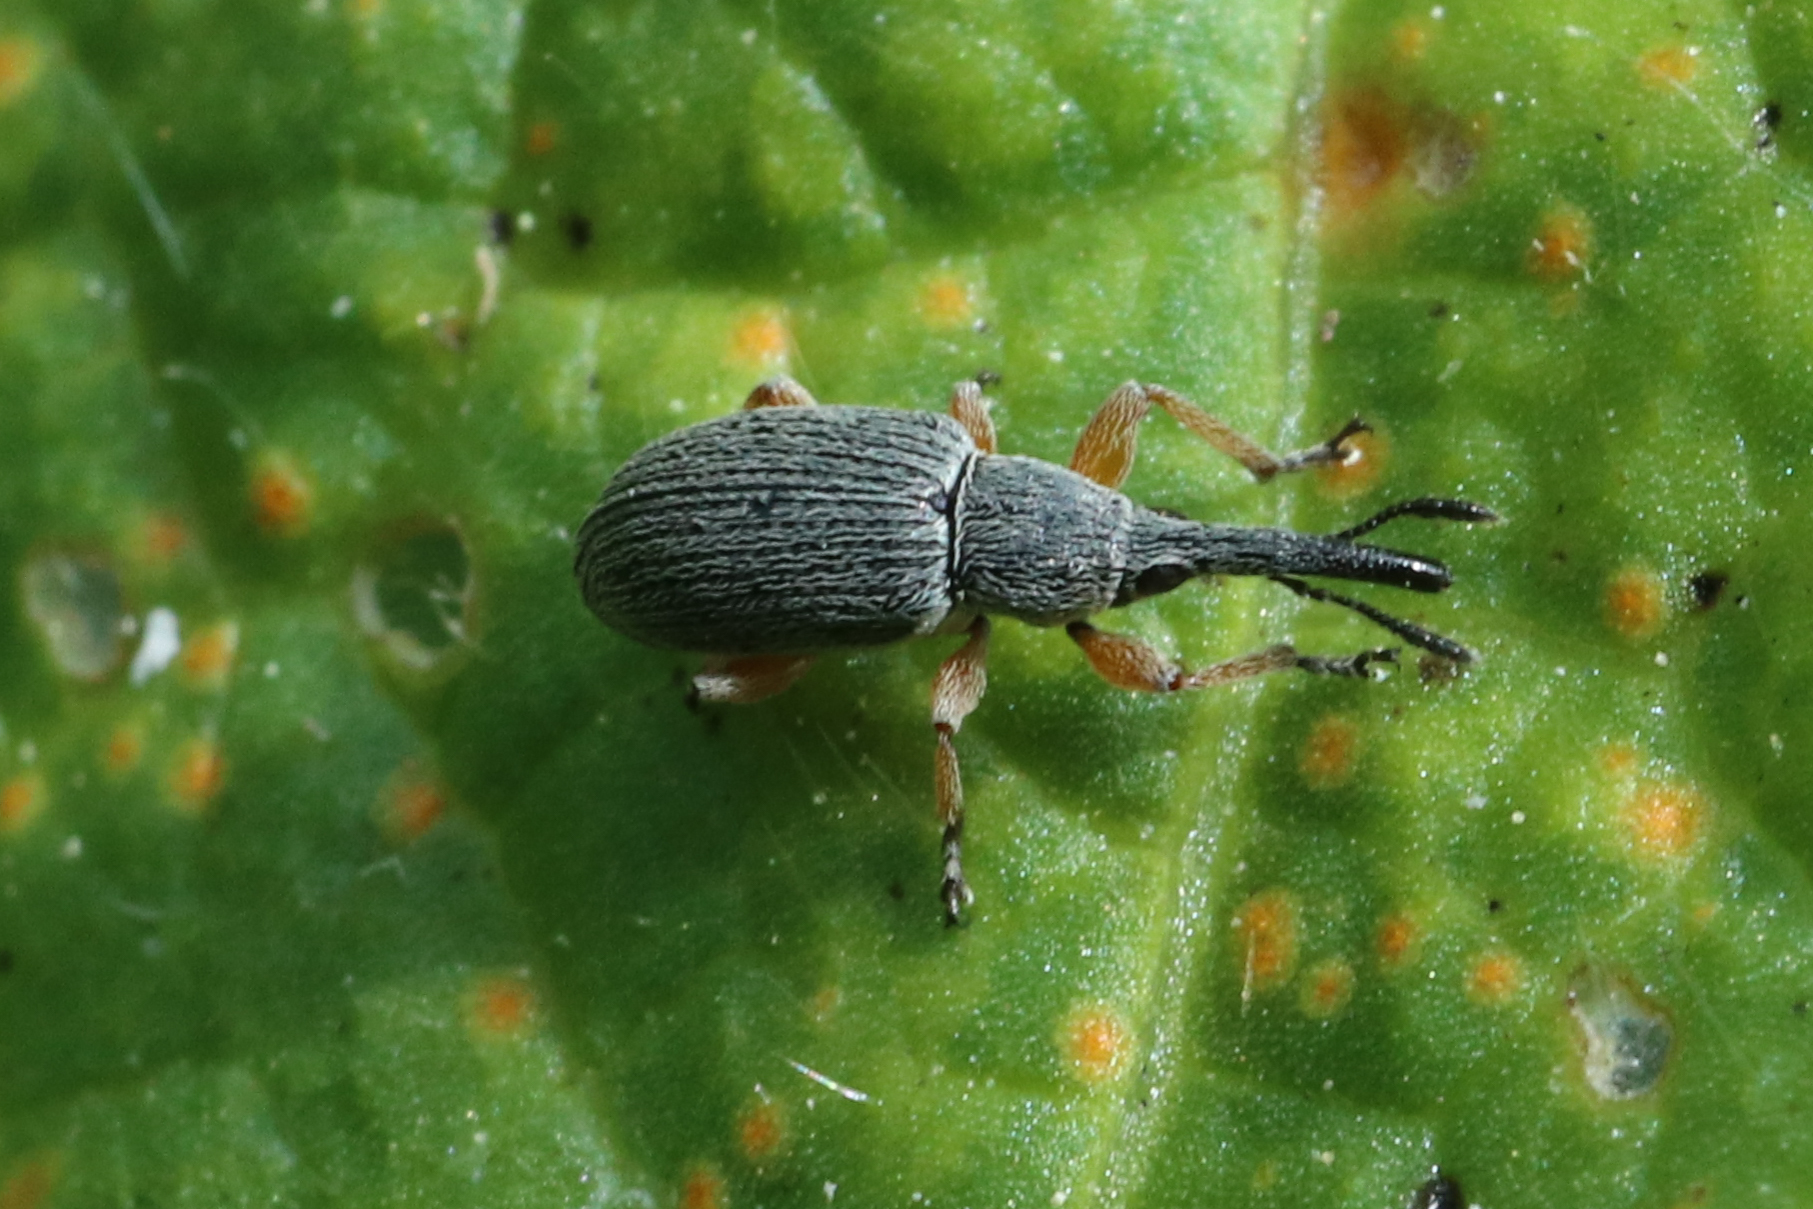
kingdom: Animalia
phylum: Arthropoda
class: Insecta
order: Coleoptera
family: Brentidae
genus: Rhopalapion
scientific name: Rhopalapion longirostre
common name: Hollyhock weevil
